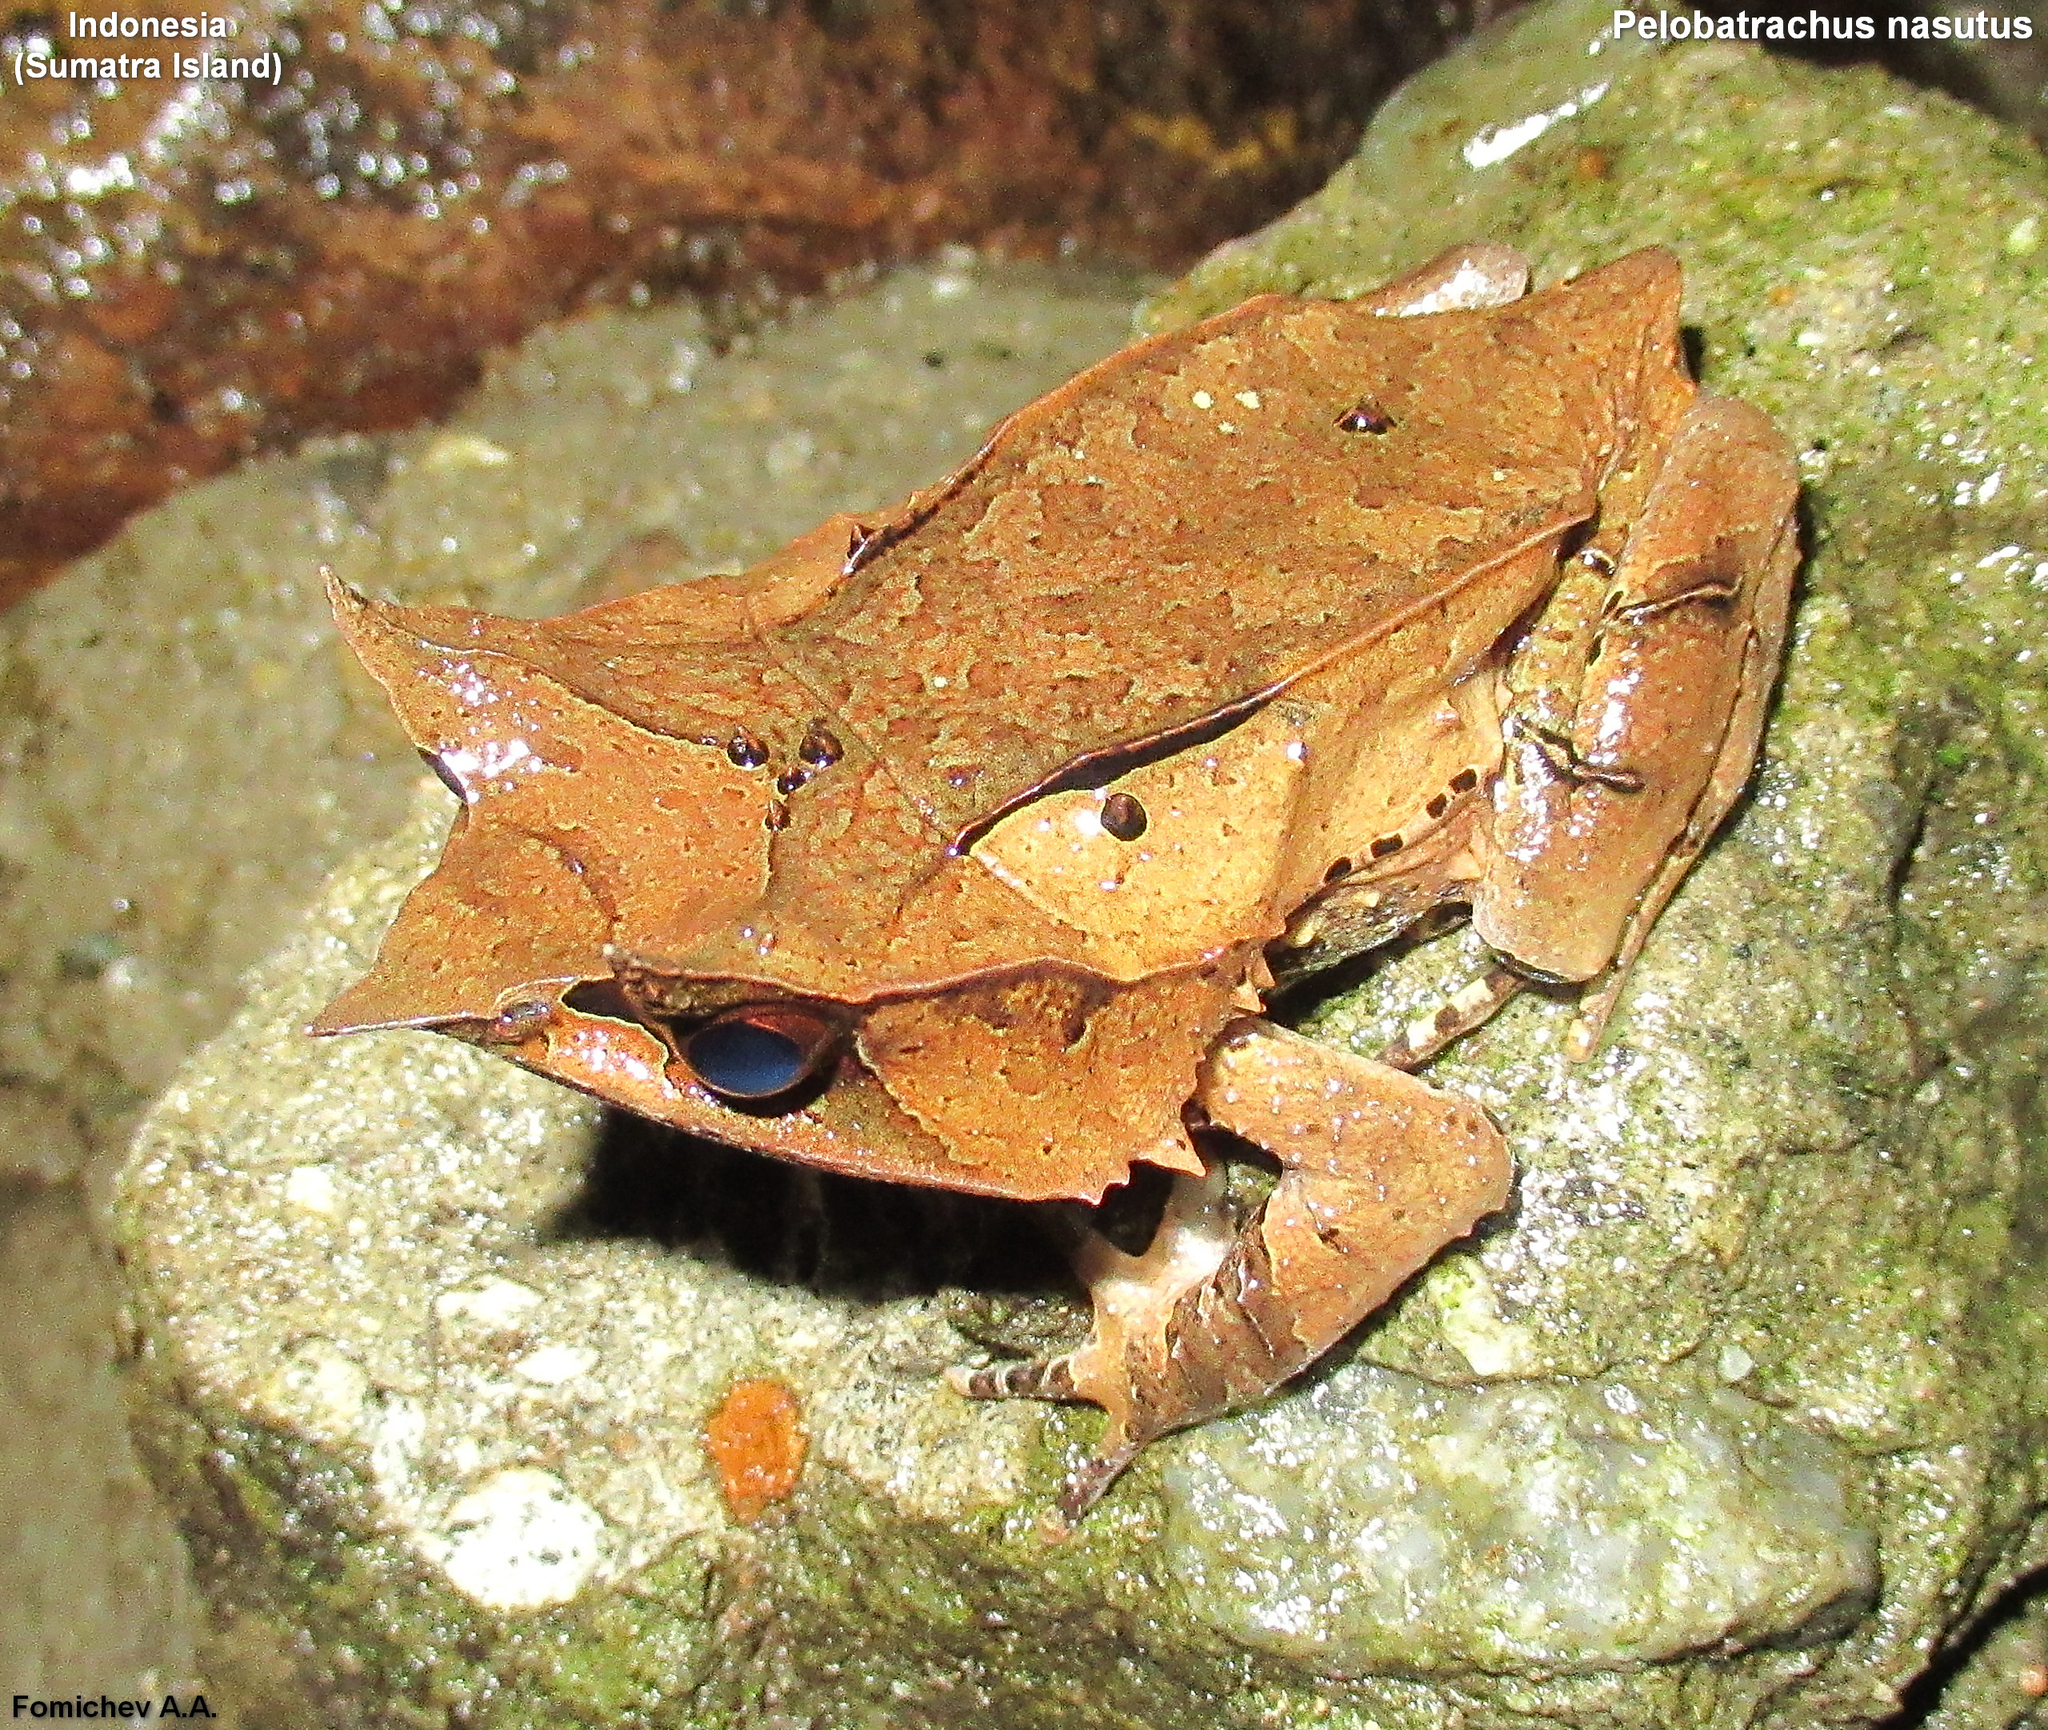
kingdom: Animalia
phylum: Chordata
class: Amphibia
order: Anura
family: Megophryidae
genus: Megophrys
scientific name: Megophrys nasuta
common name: Malayan horned frog
